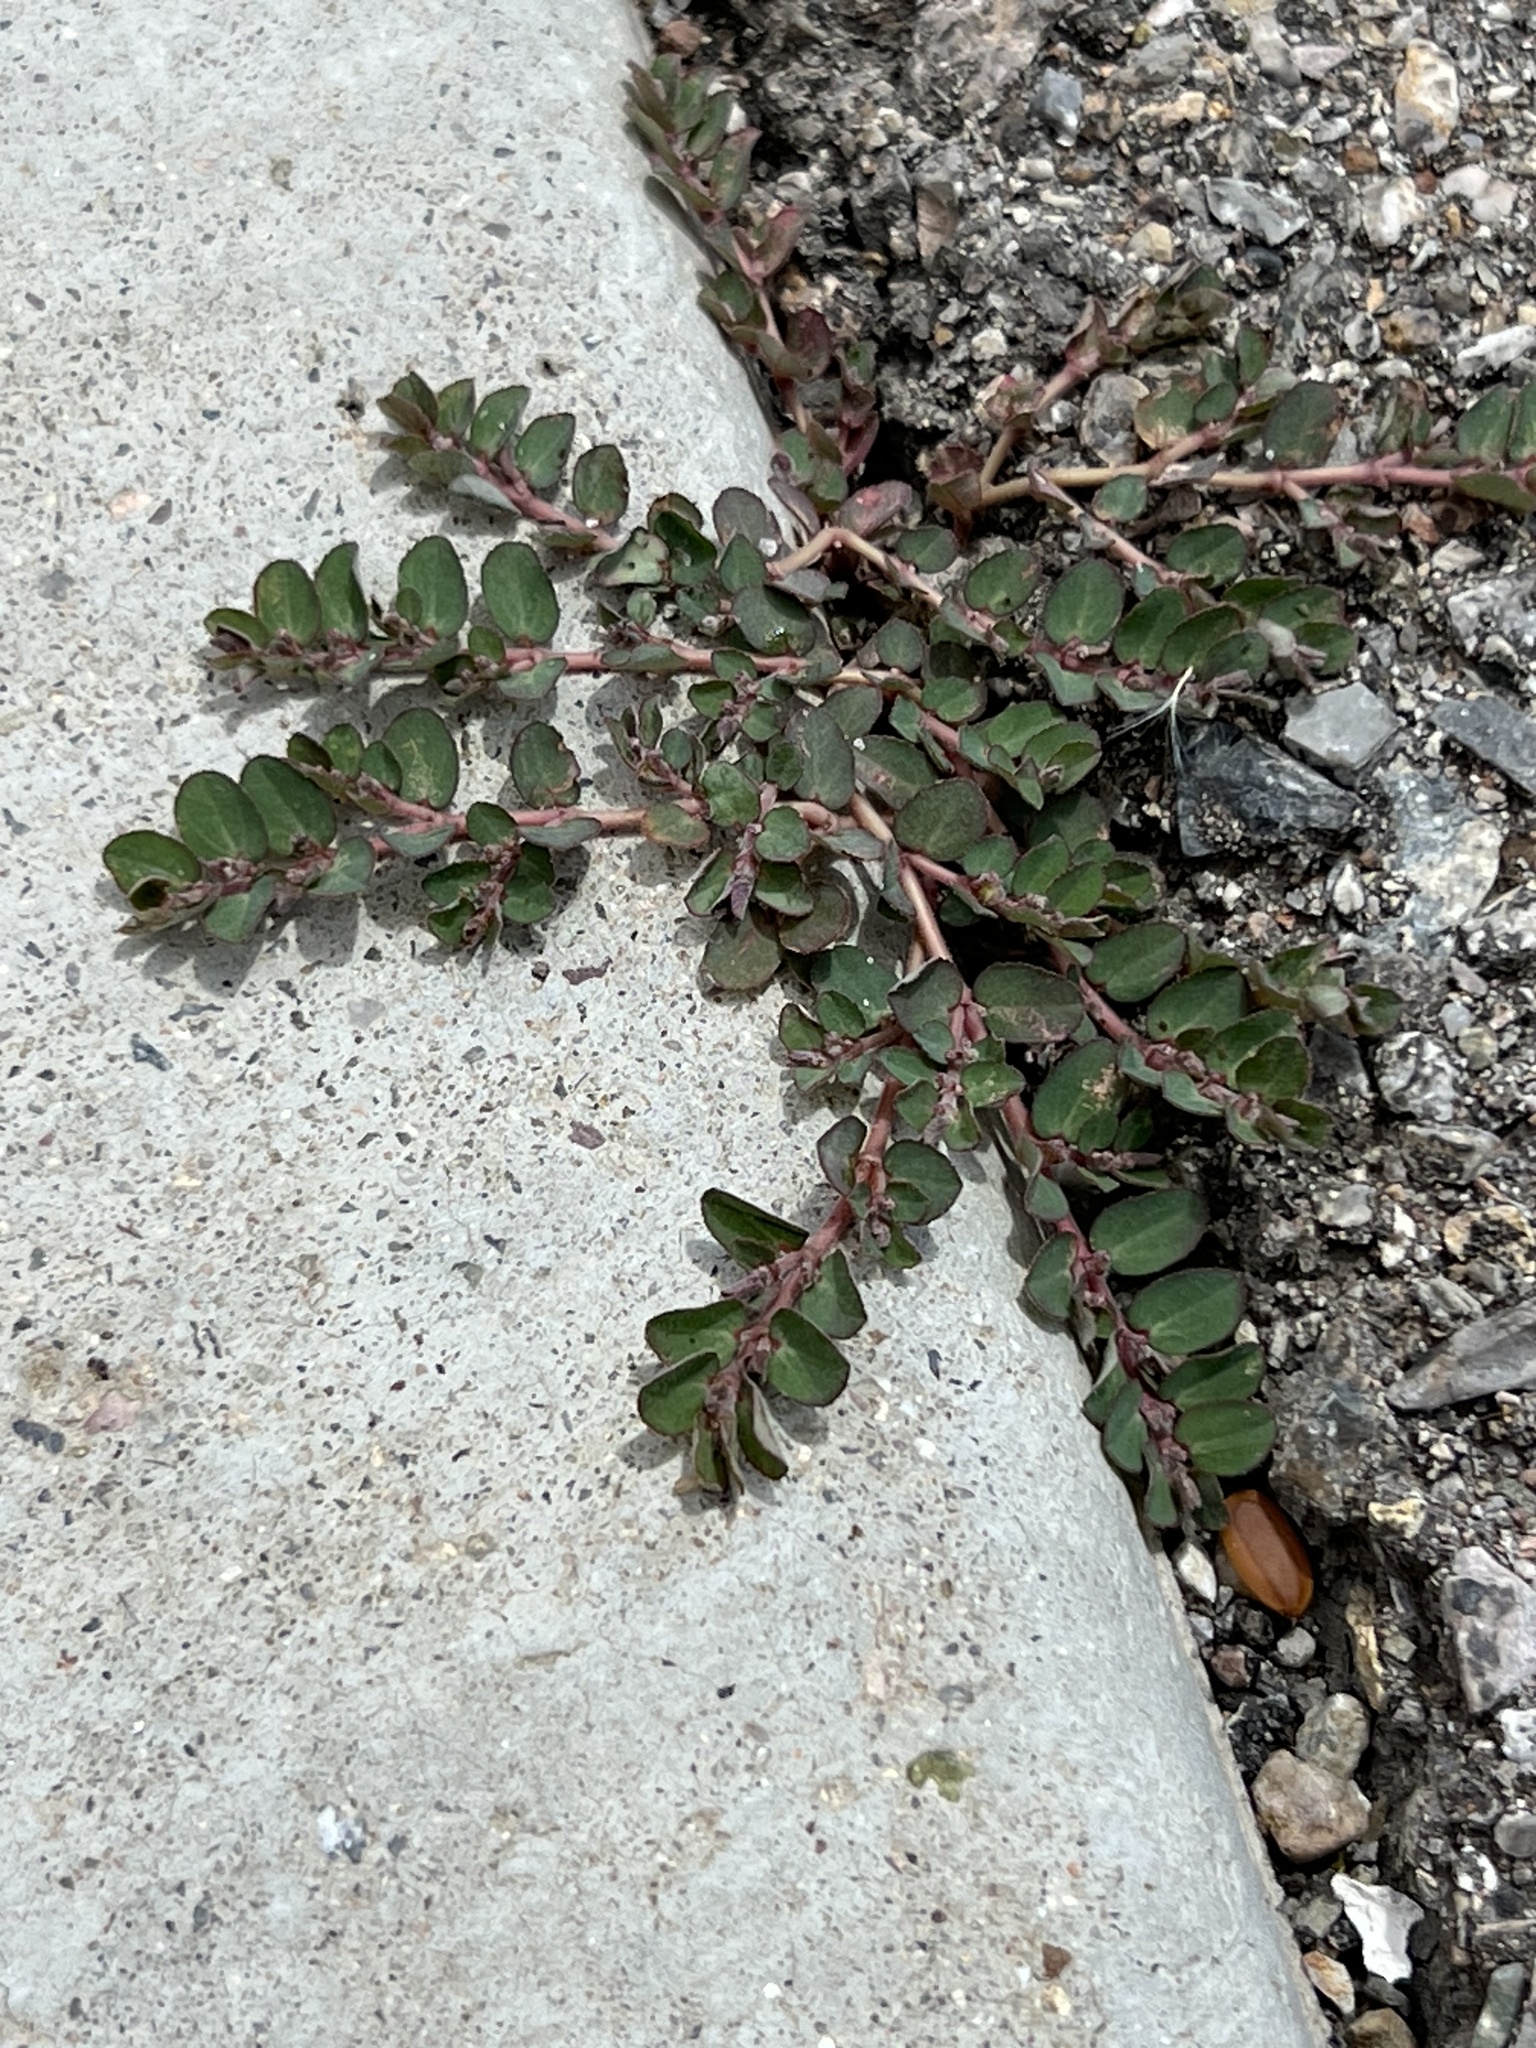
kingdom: Plantae
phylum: Tracheophyta
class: Magnoliopsida
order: Malpighiales
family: Euphorbiaceae
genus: Euphorbia
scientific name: Euphorbia prostrata
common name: Prostrate sandmat
